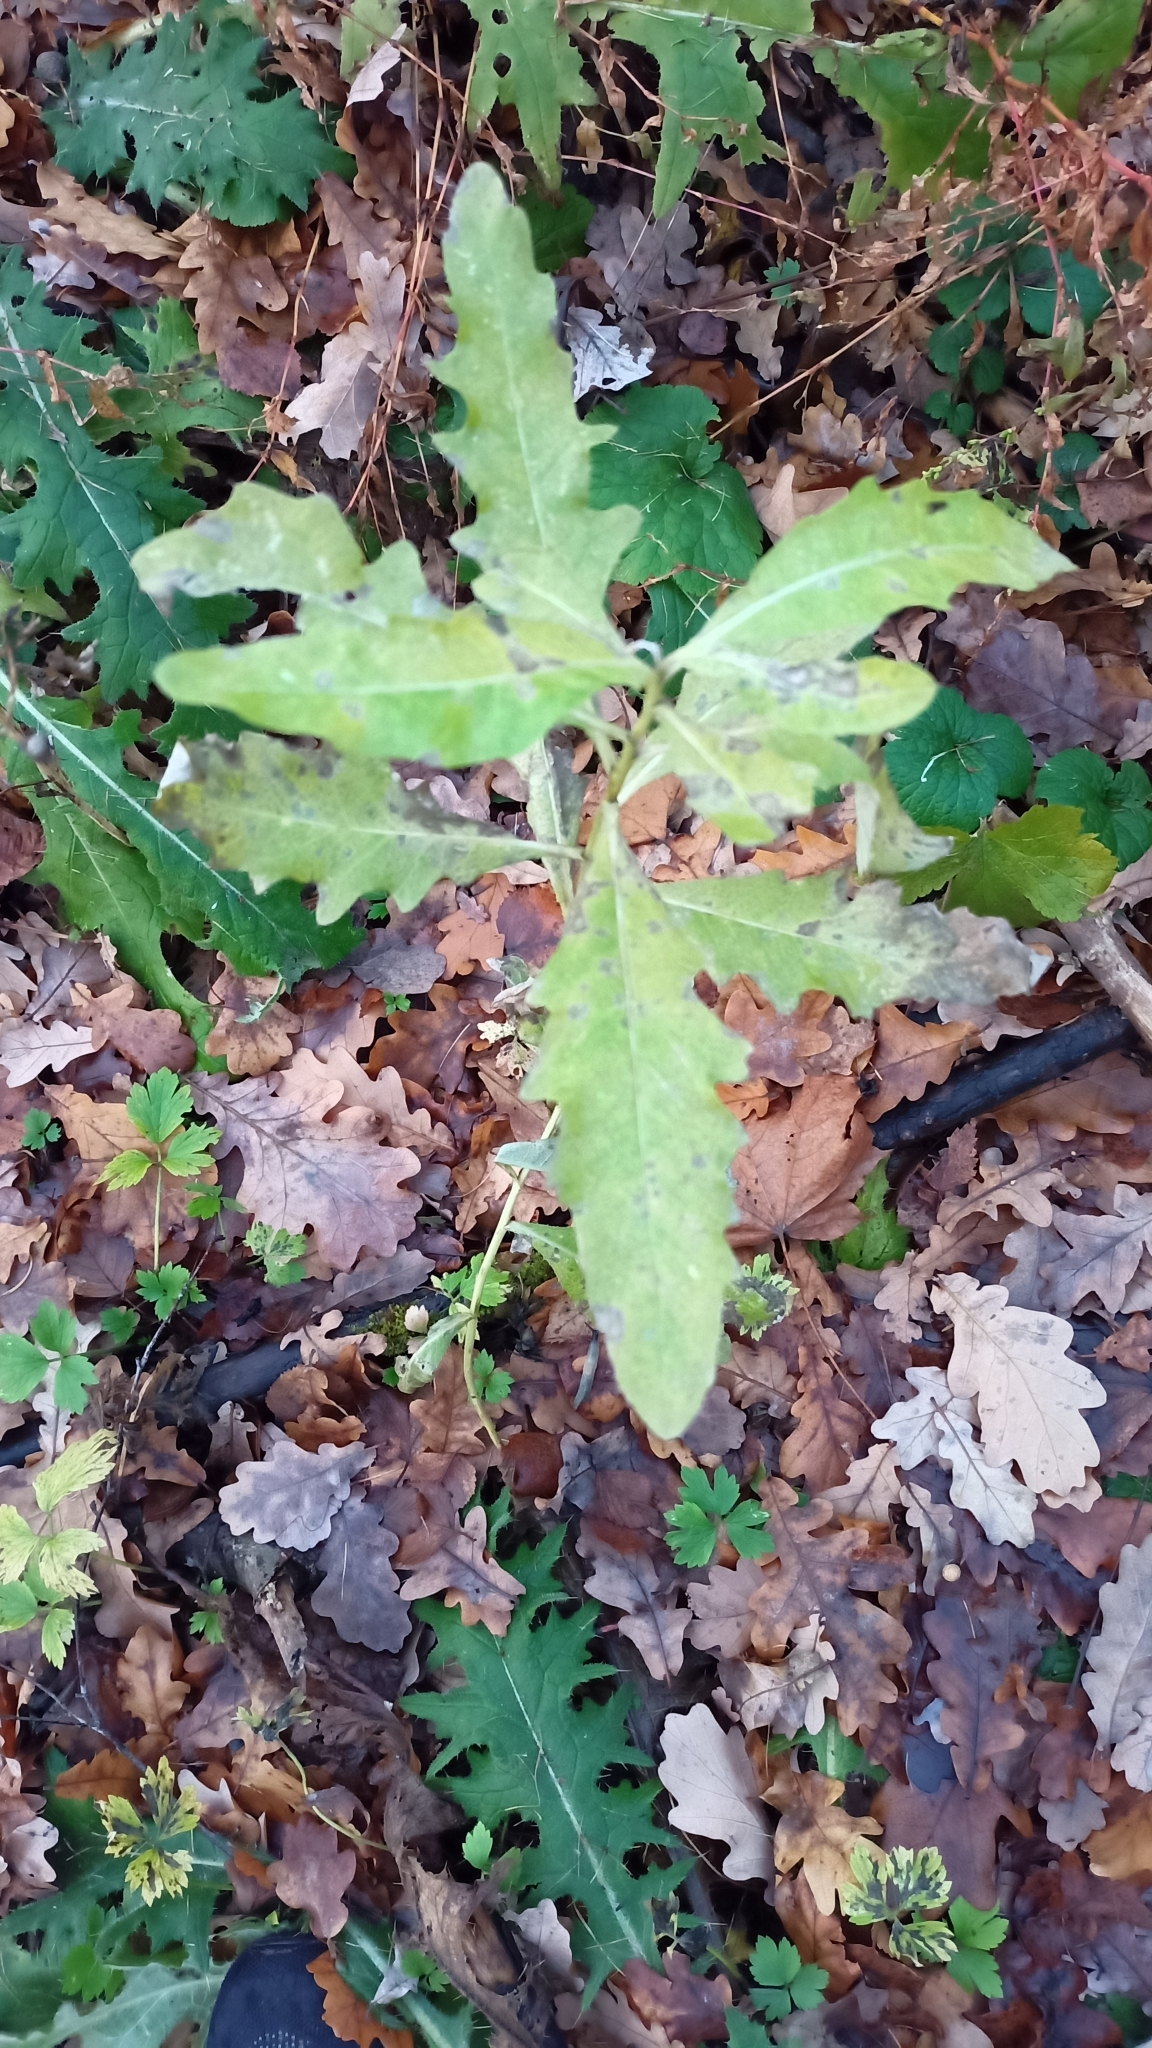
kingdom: Plantae
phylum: Tracheophyta
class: Magnoliopsida
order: Asterales
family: Asteraceae
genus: Cirsium
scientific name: Cirsium arvense
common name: Creeping thistle
